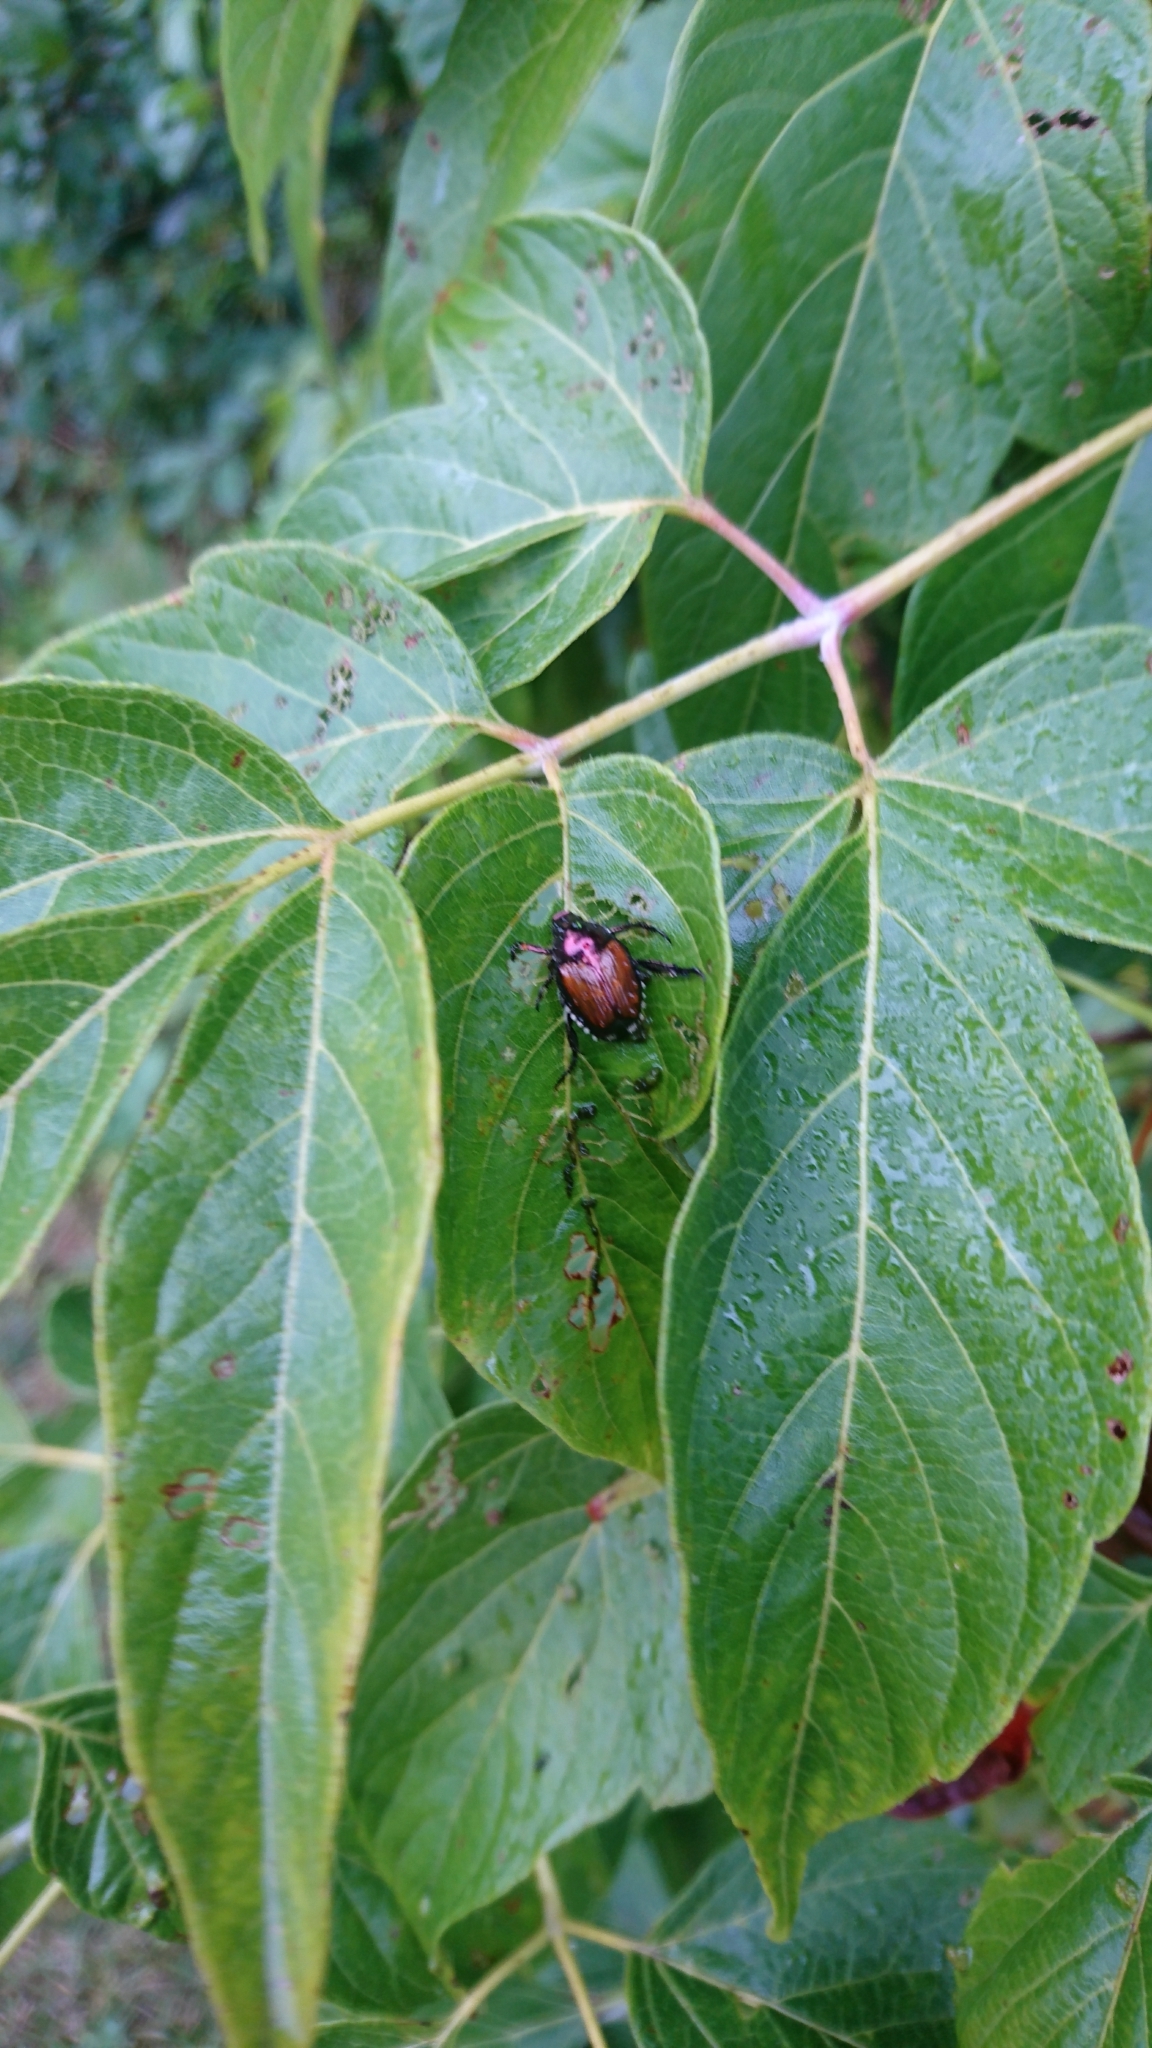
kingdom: Animalia
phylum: Arthropoda
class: Insecta
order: Coleoptera
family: Scarabaeidae
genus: Popillia
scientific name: Popillia japonica
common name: Japanese beetle
